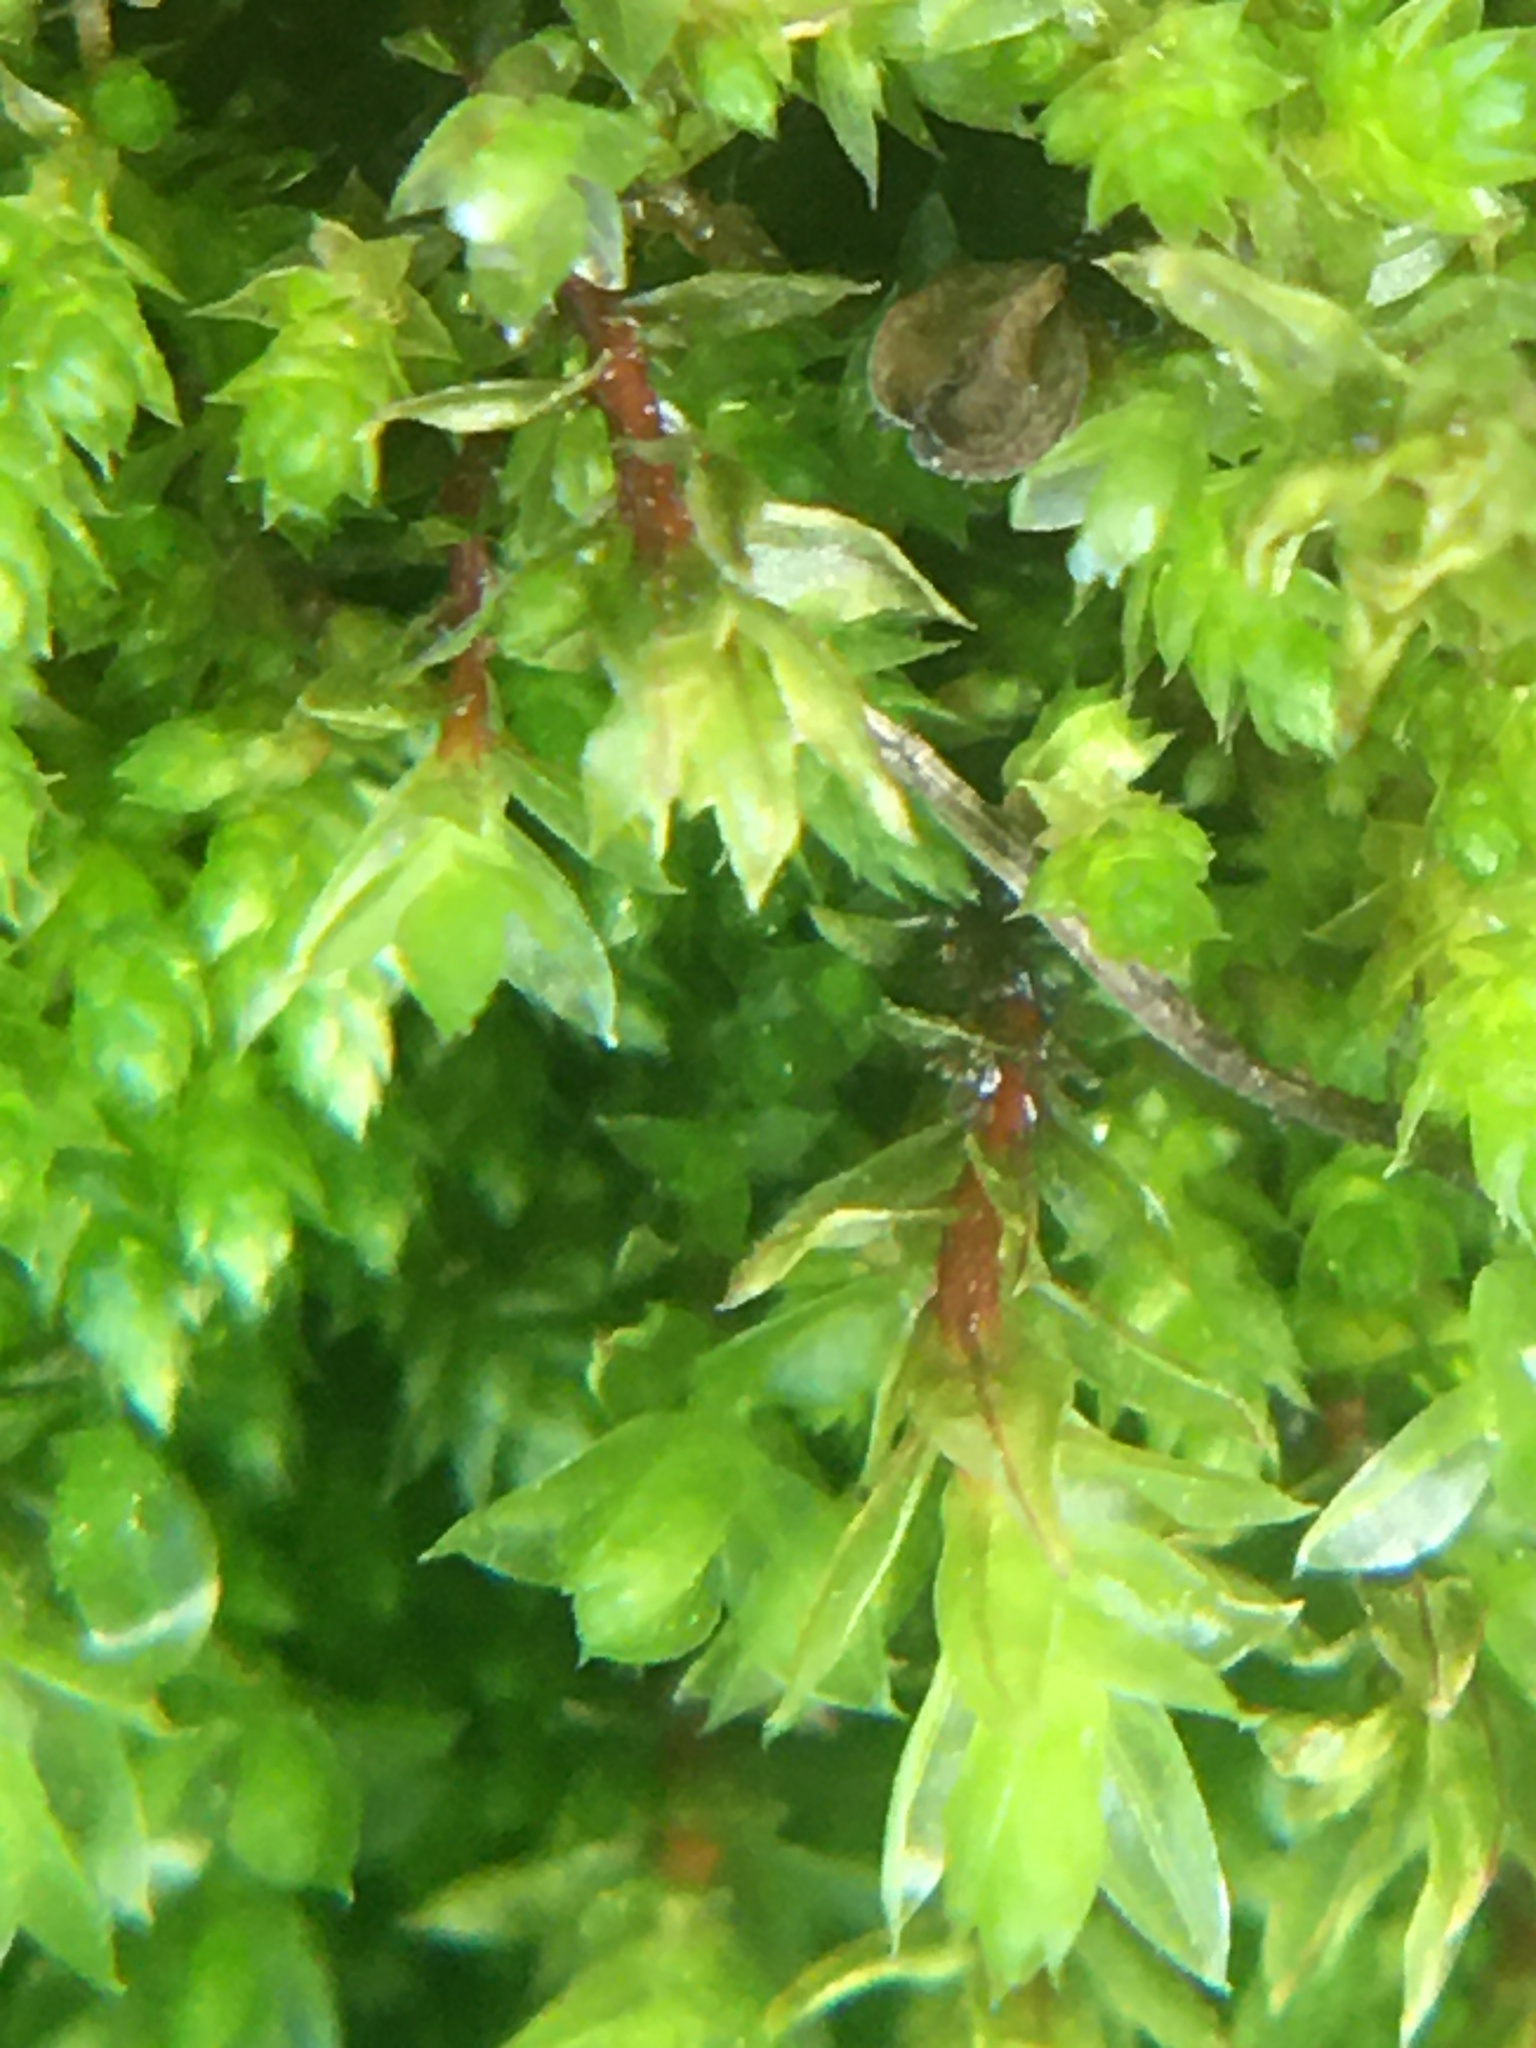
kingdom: Plantae
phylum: Bryophyta
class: Bryopsida
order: Bryales
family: Bryaceae
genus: Ptychostomum
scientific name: Ptychostomum pseudotriquetrum
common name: Long-leaved thread moss
